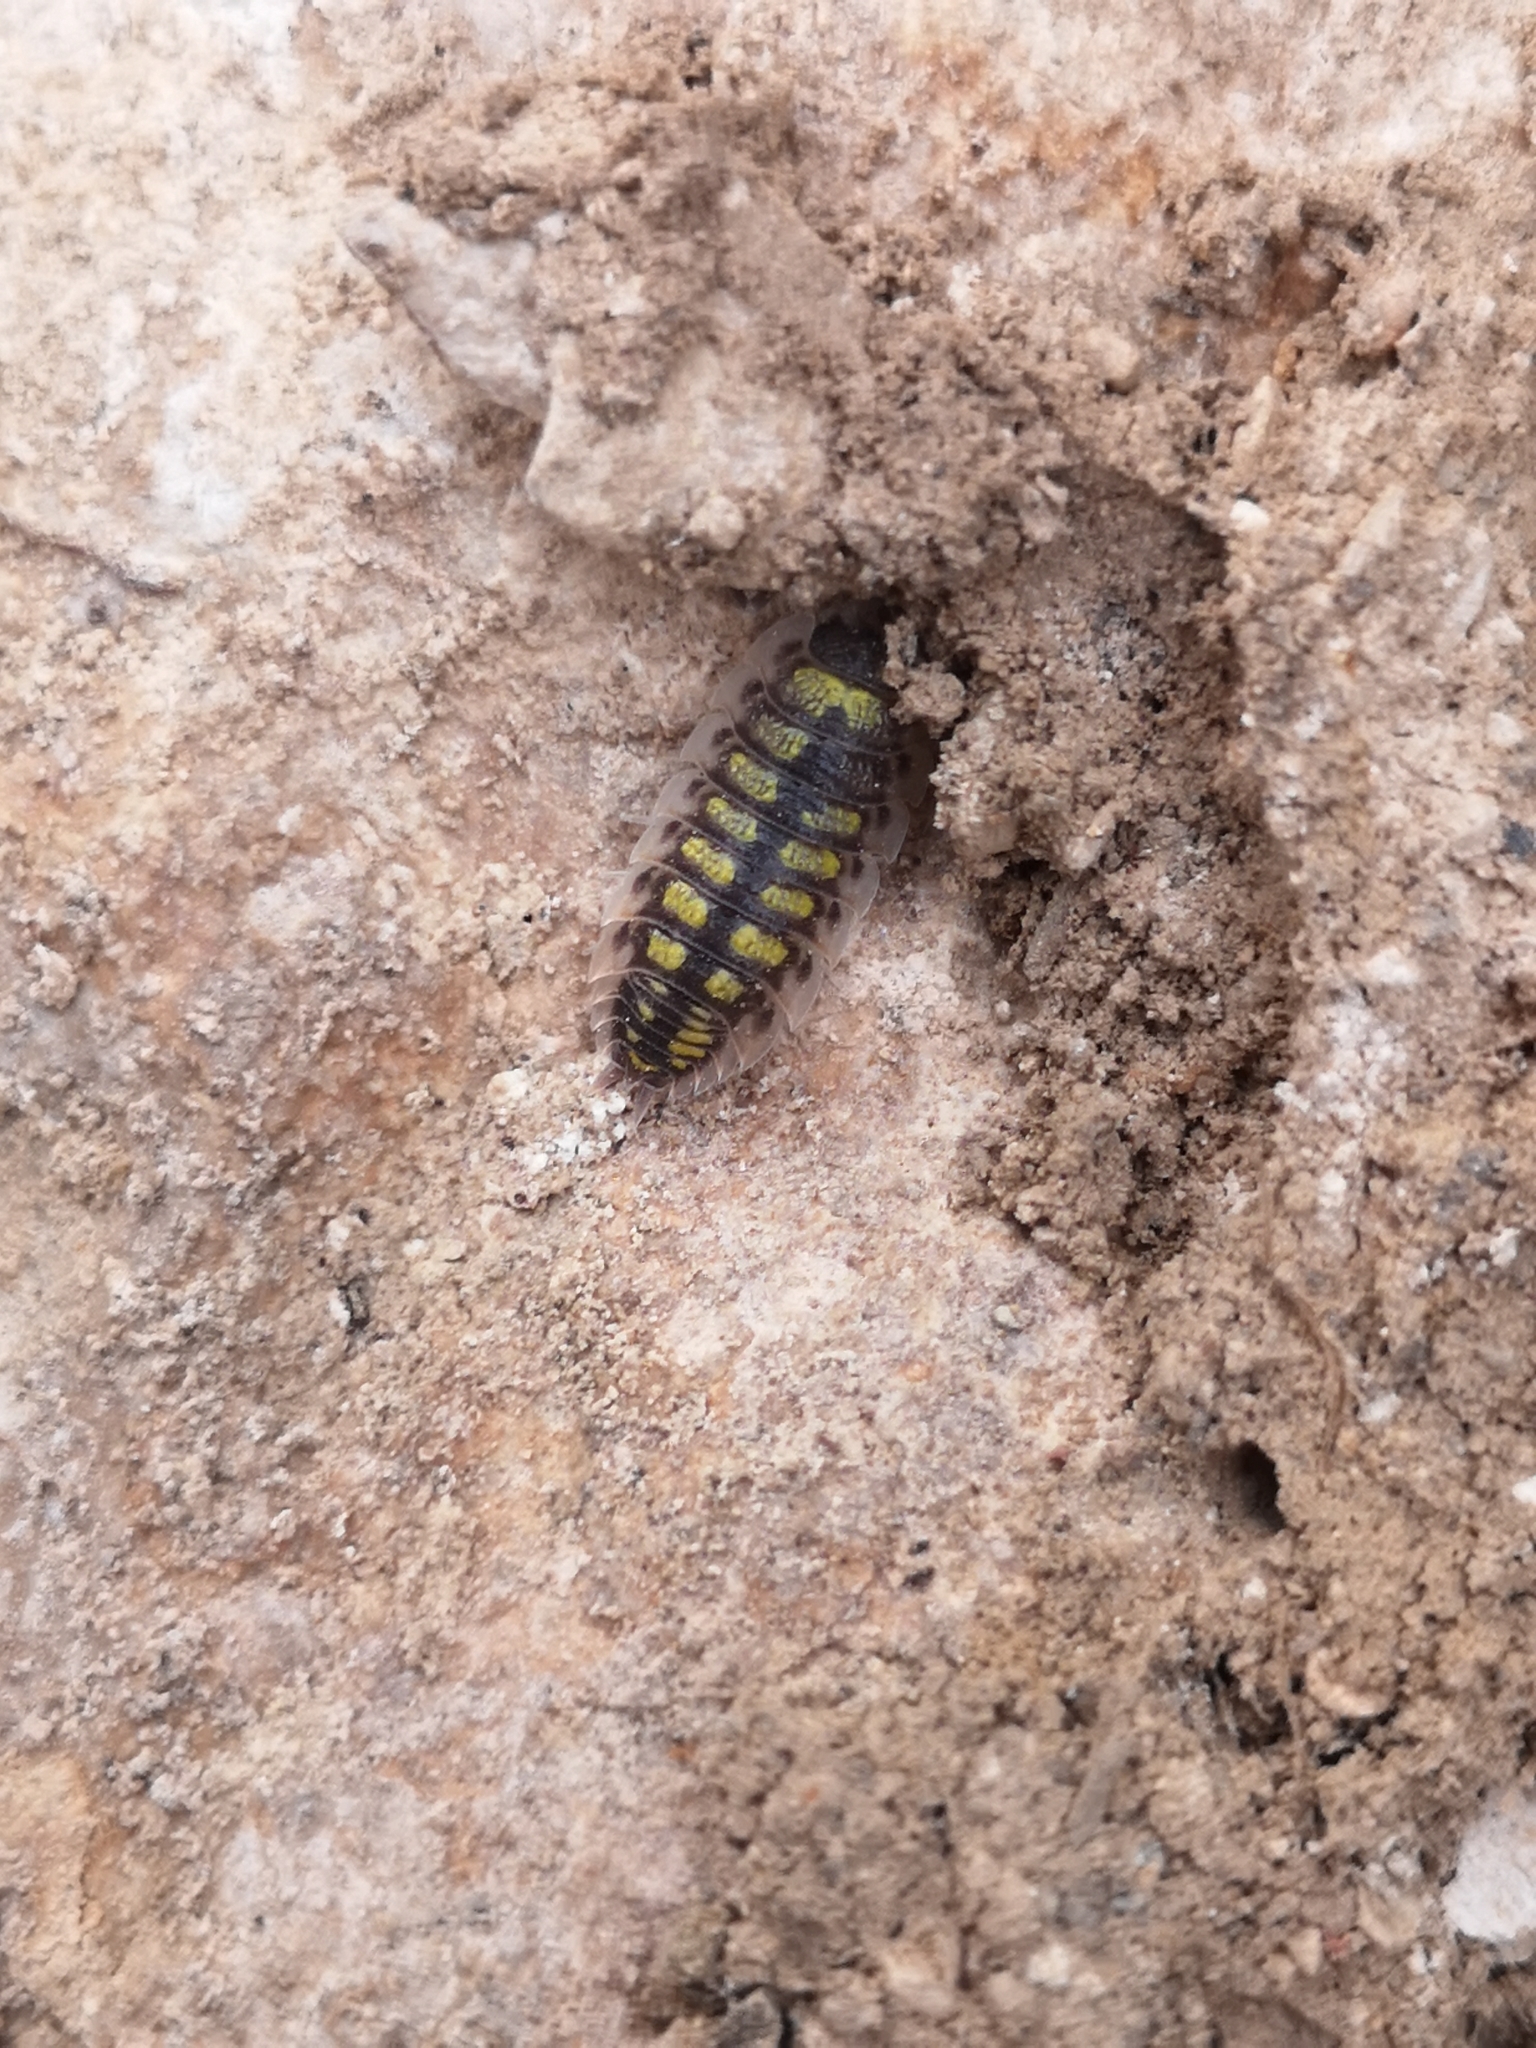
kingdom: Animalia
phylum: Arthropoda
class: Malacostraca
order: Isopoda
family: Porcellionidae
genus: Porcellio
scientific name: Porcellio haasi
